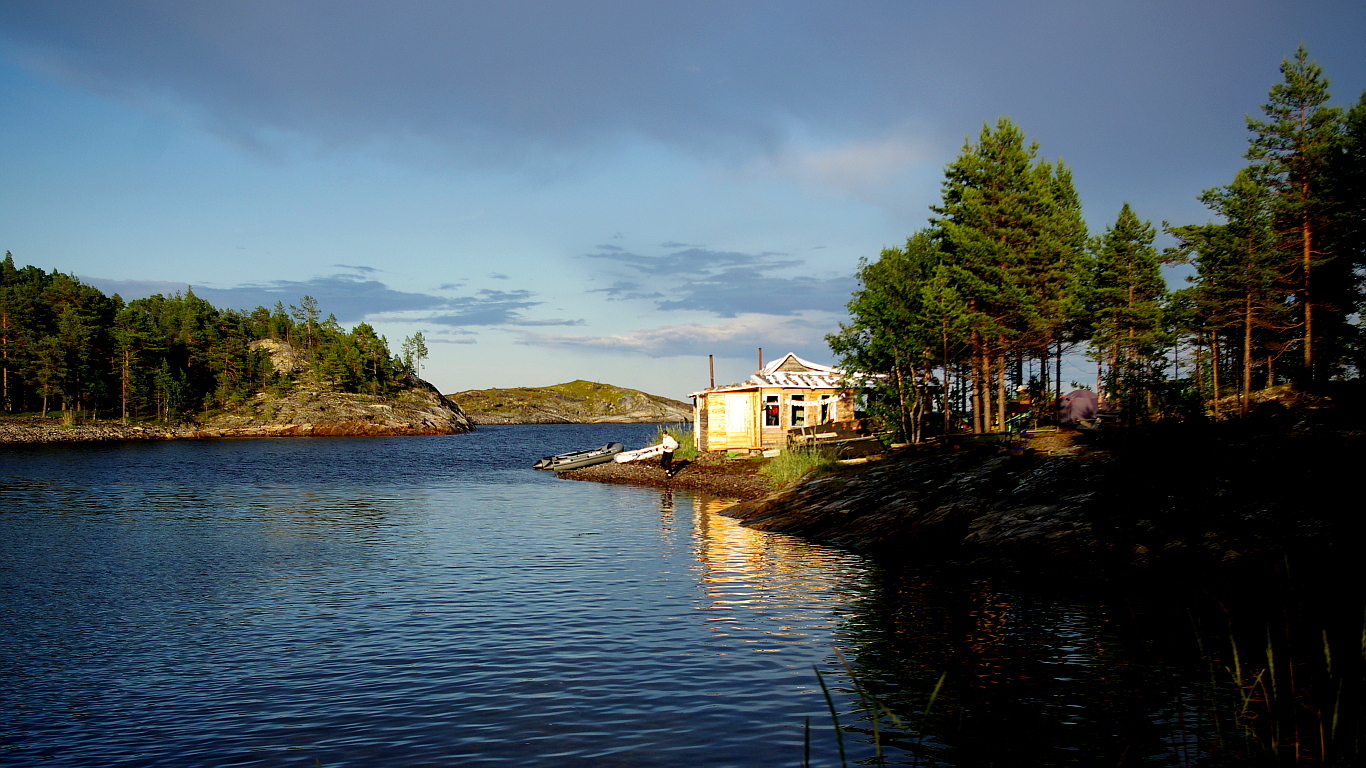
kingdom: Plantae
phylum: Tracheophyta
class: Pinopsida
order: Pinales
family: Pinaceae
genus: Pinus
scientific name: Pinus sylvestris
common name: Scots pine
